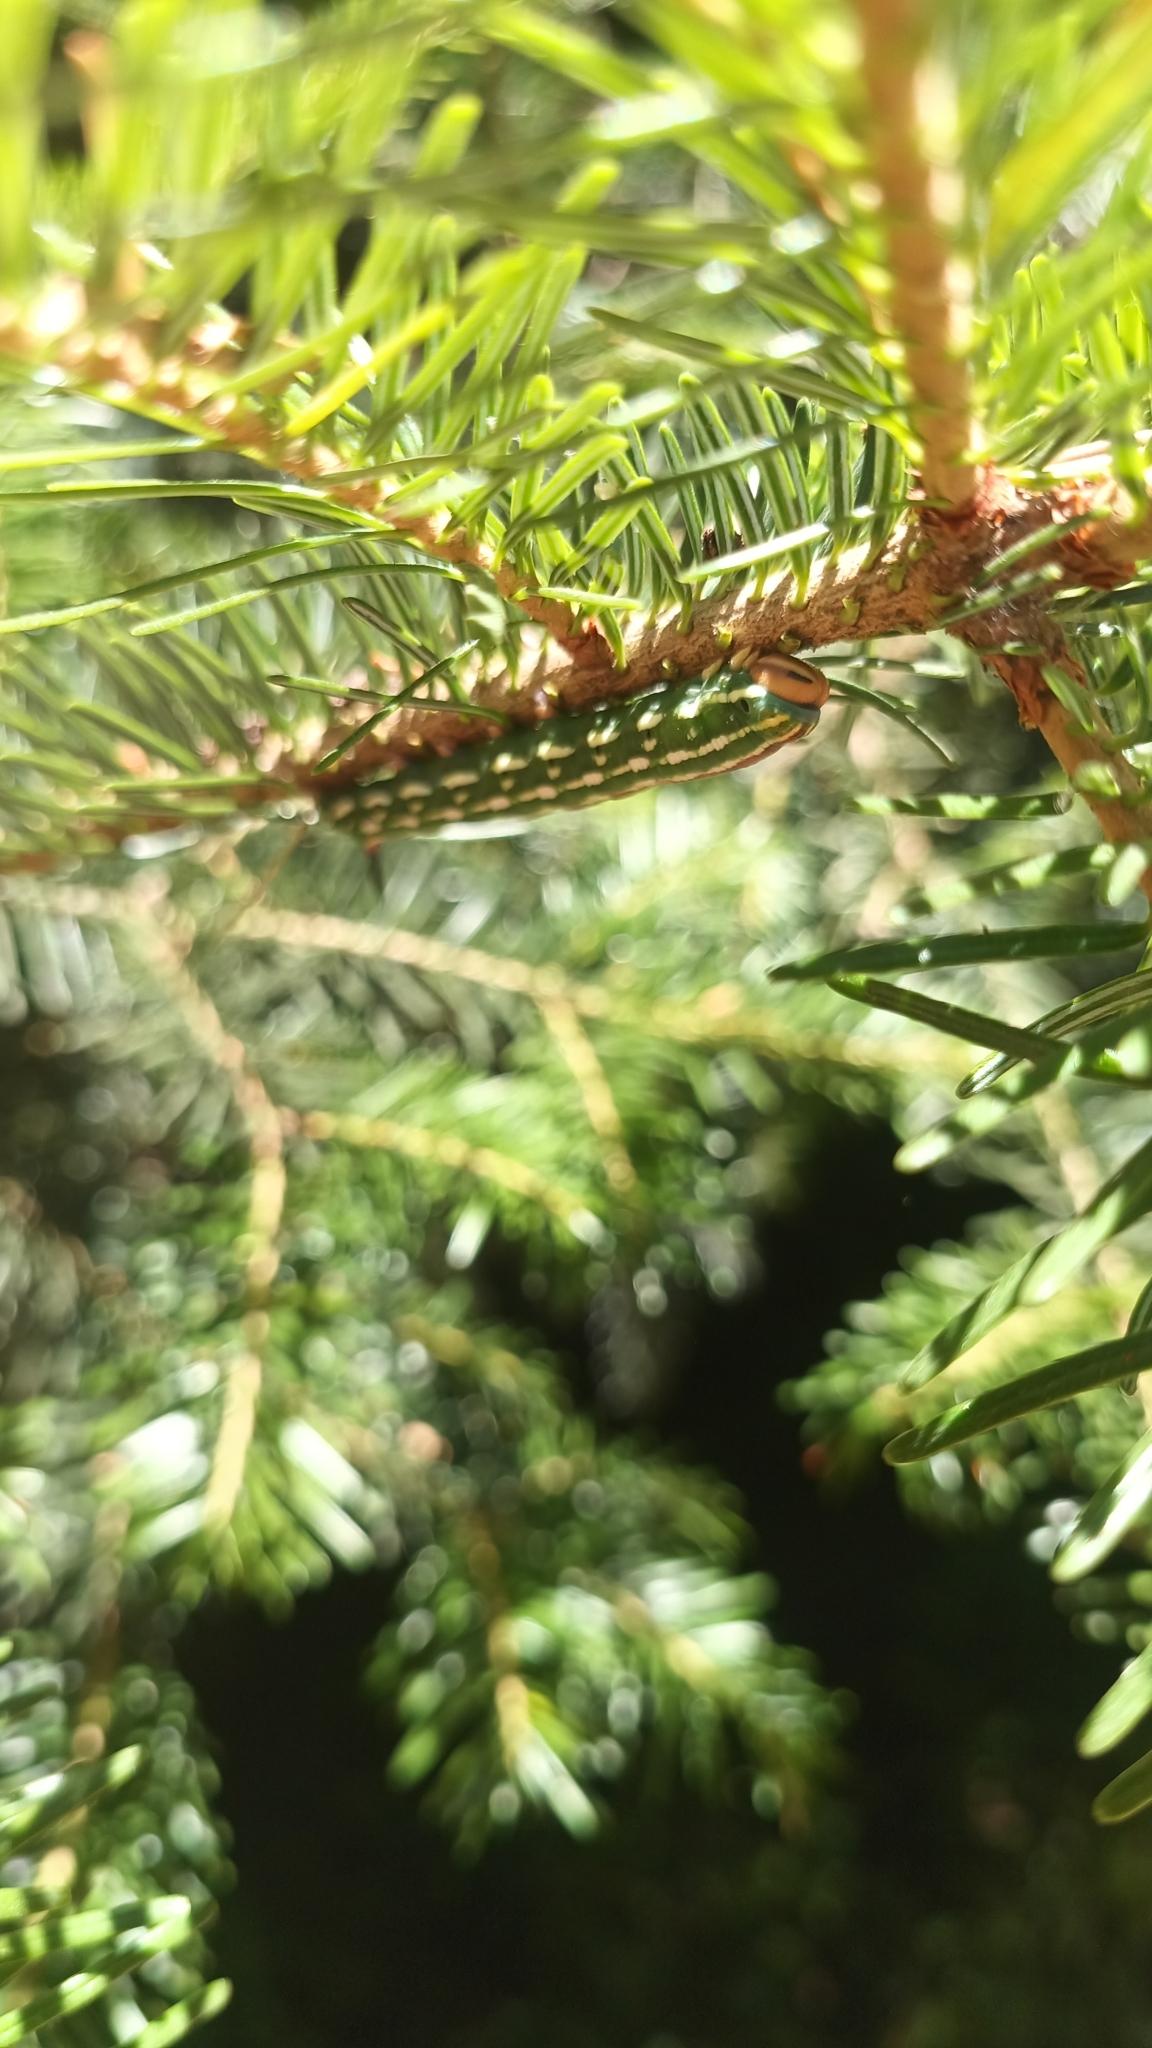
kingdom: Animalia
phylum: Arthropoda
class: Insecta
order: Lepidoptera
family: Sphingidae
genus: Sphinx
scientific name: Sphinx pinastri
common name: Pine hawk-moth
